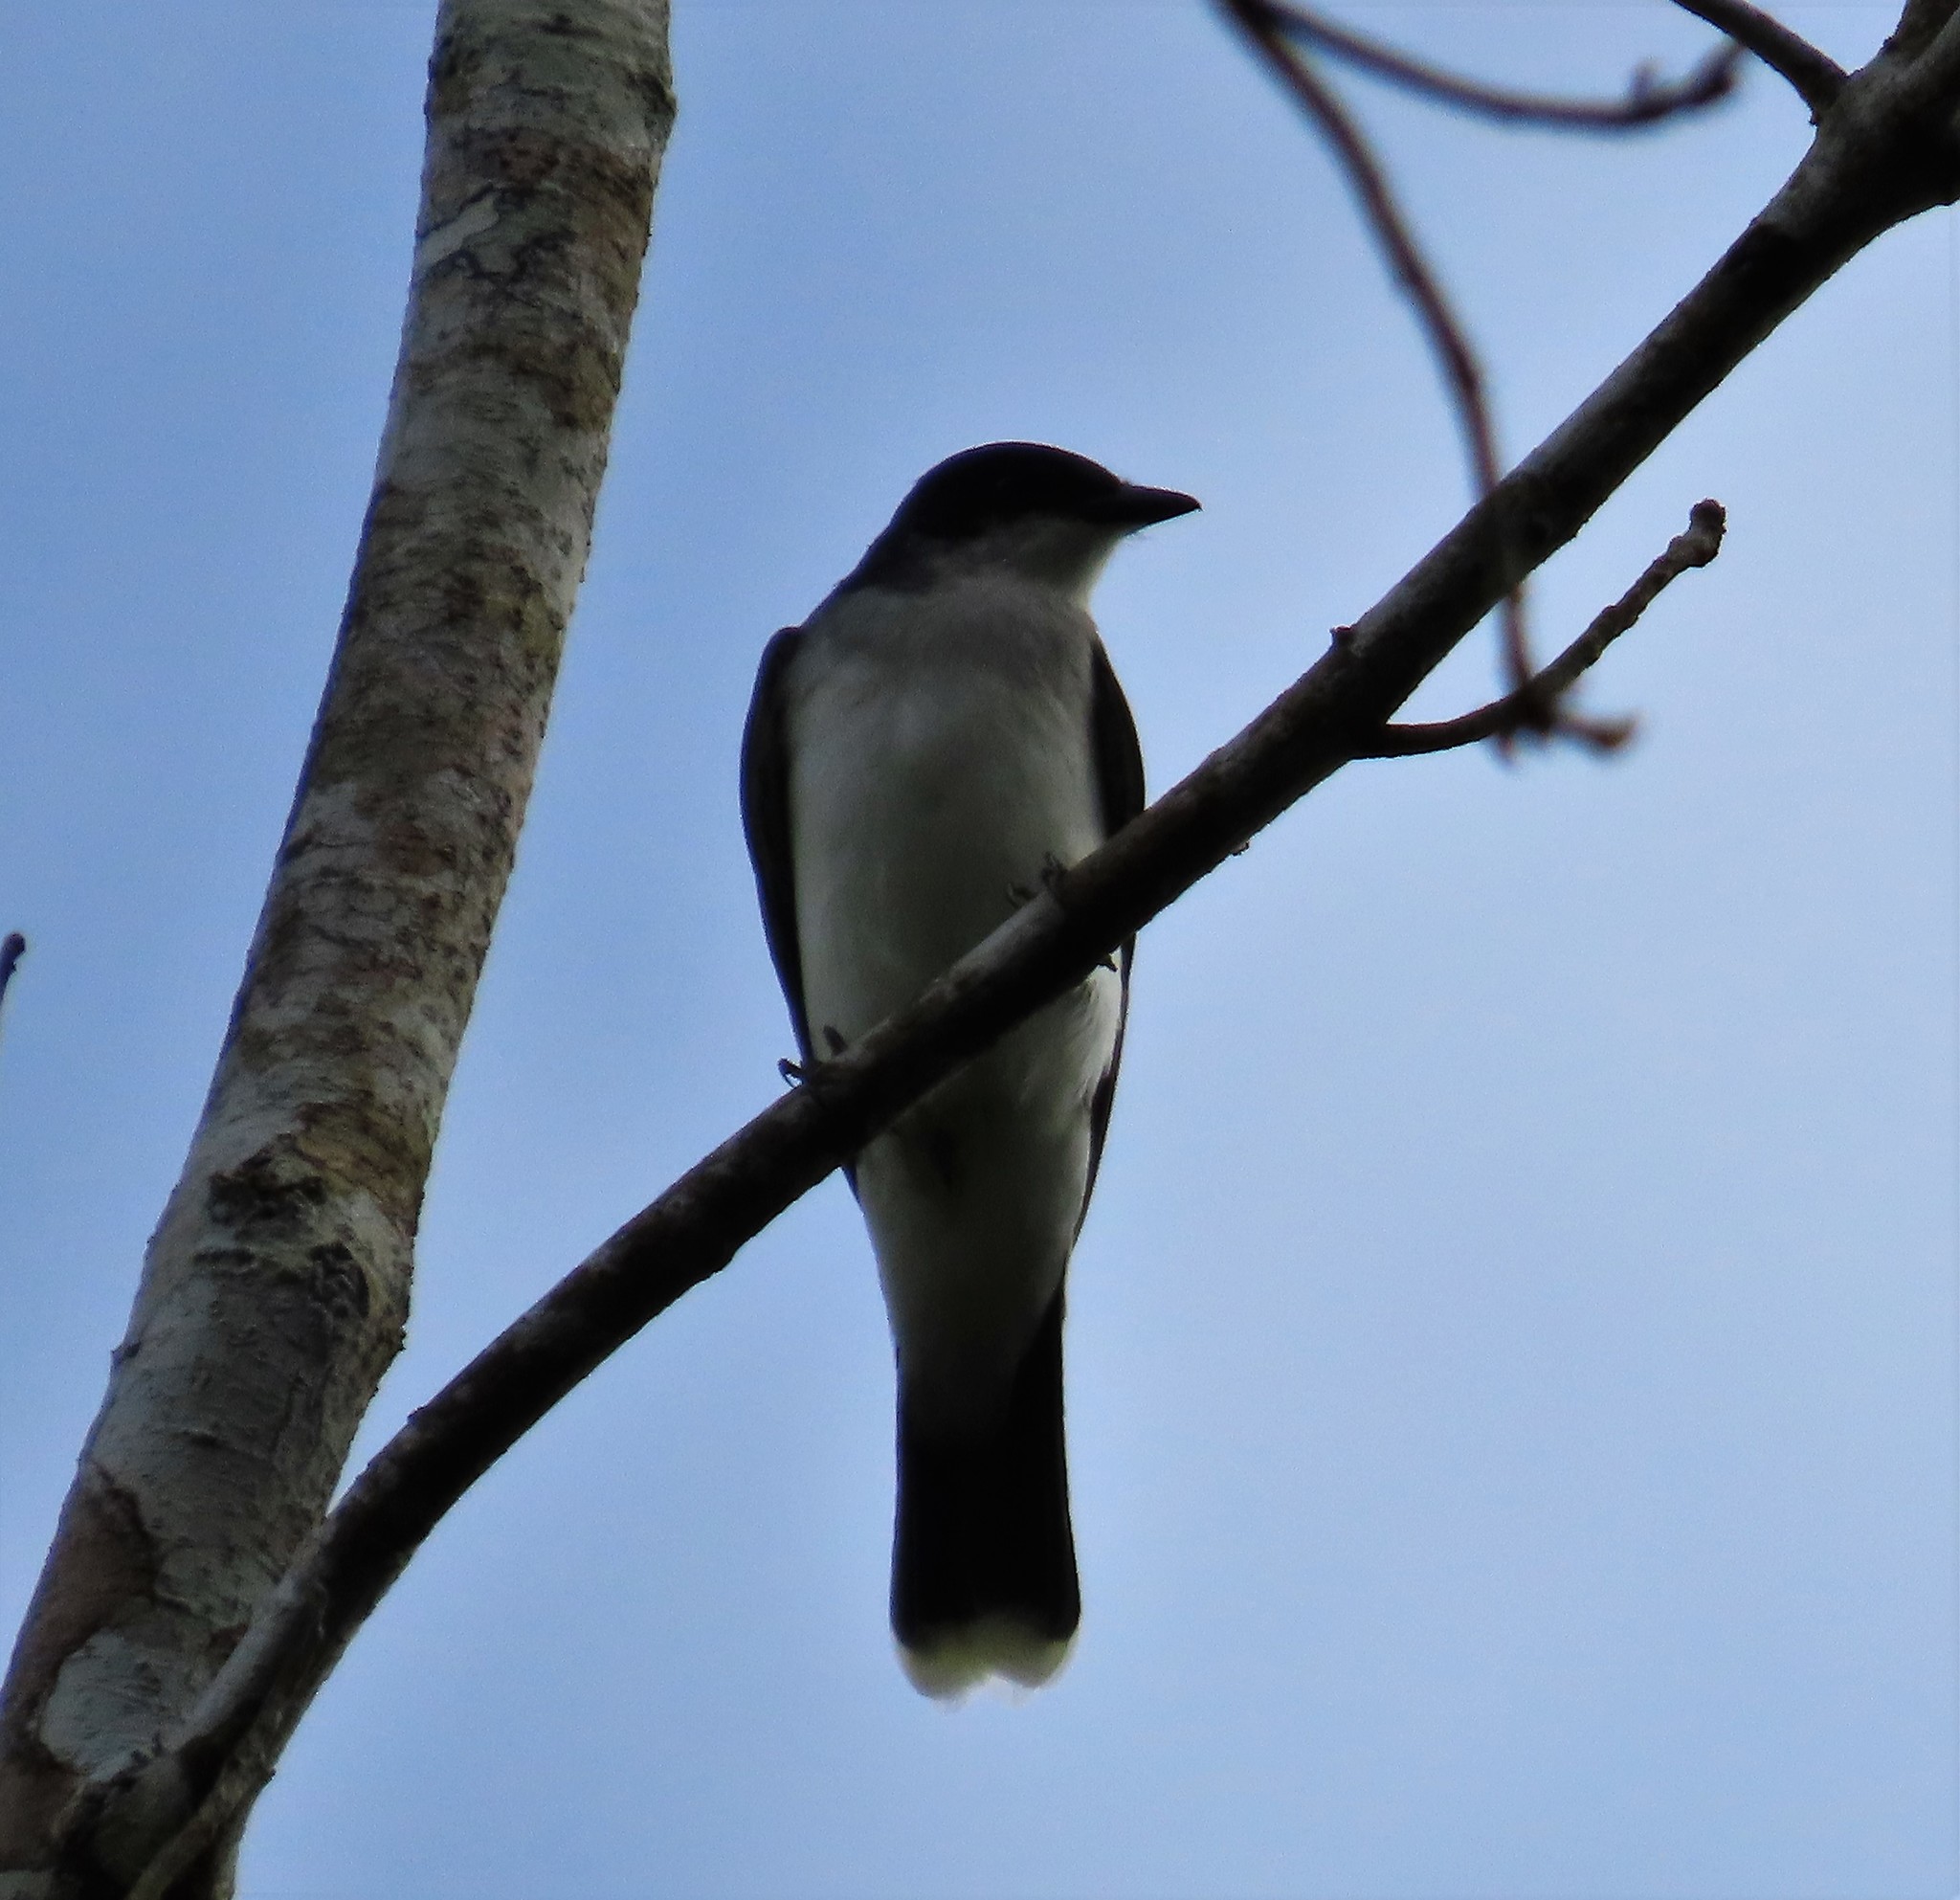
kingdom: Animalia
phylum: Chordata
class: Aves
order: Passeriformes
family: Tyrannidae
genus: Tyrannus
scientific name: Tyrannus tyrannus
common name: Eastern kingbird
